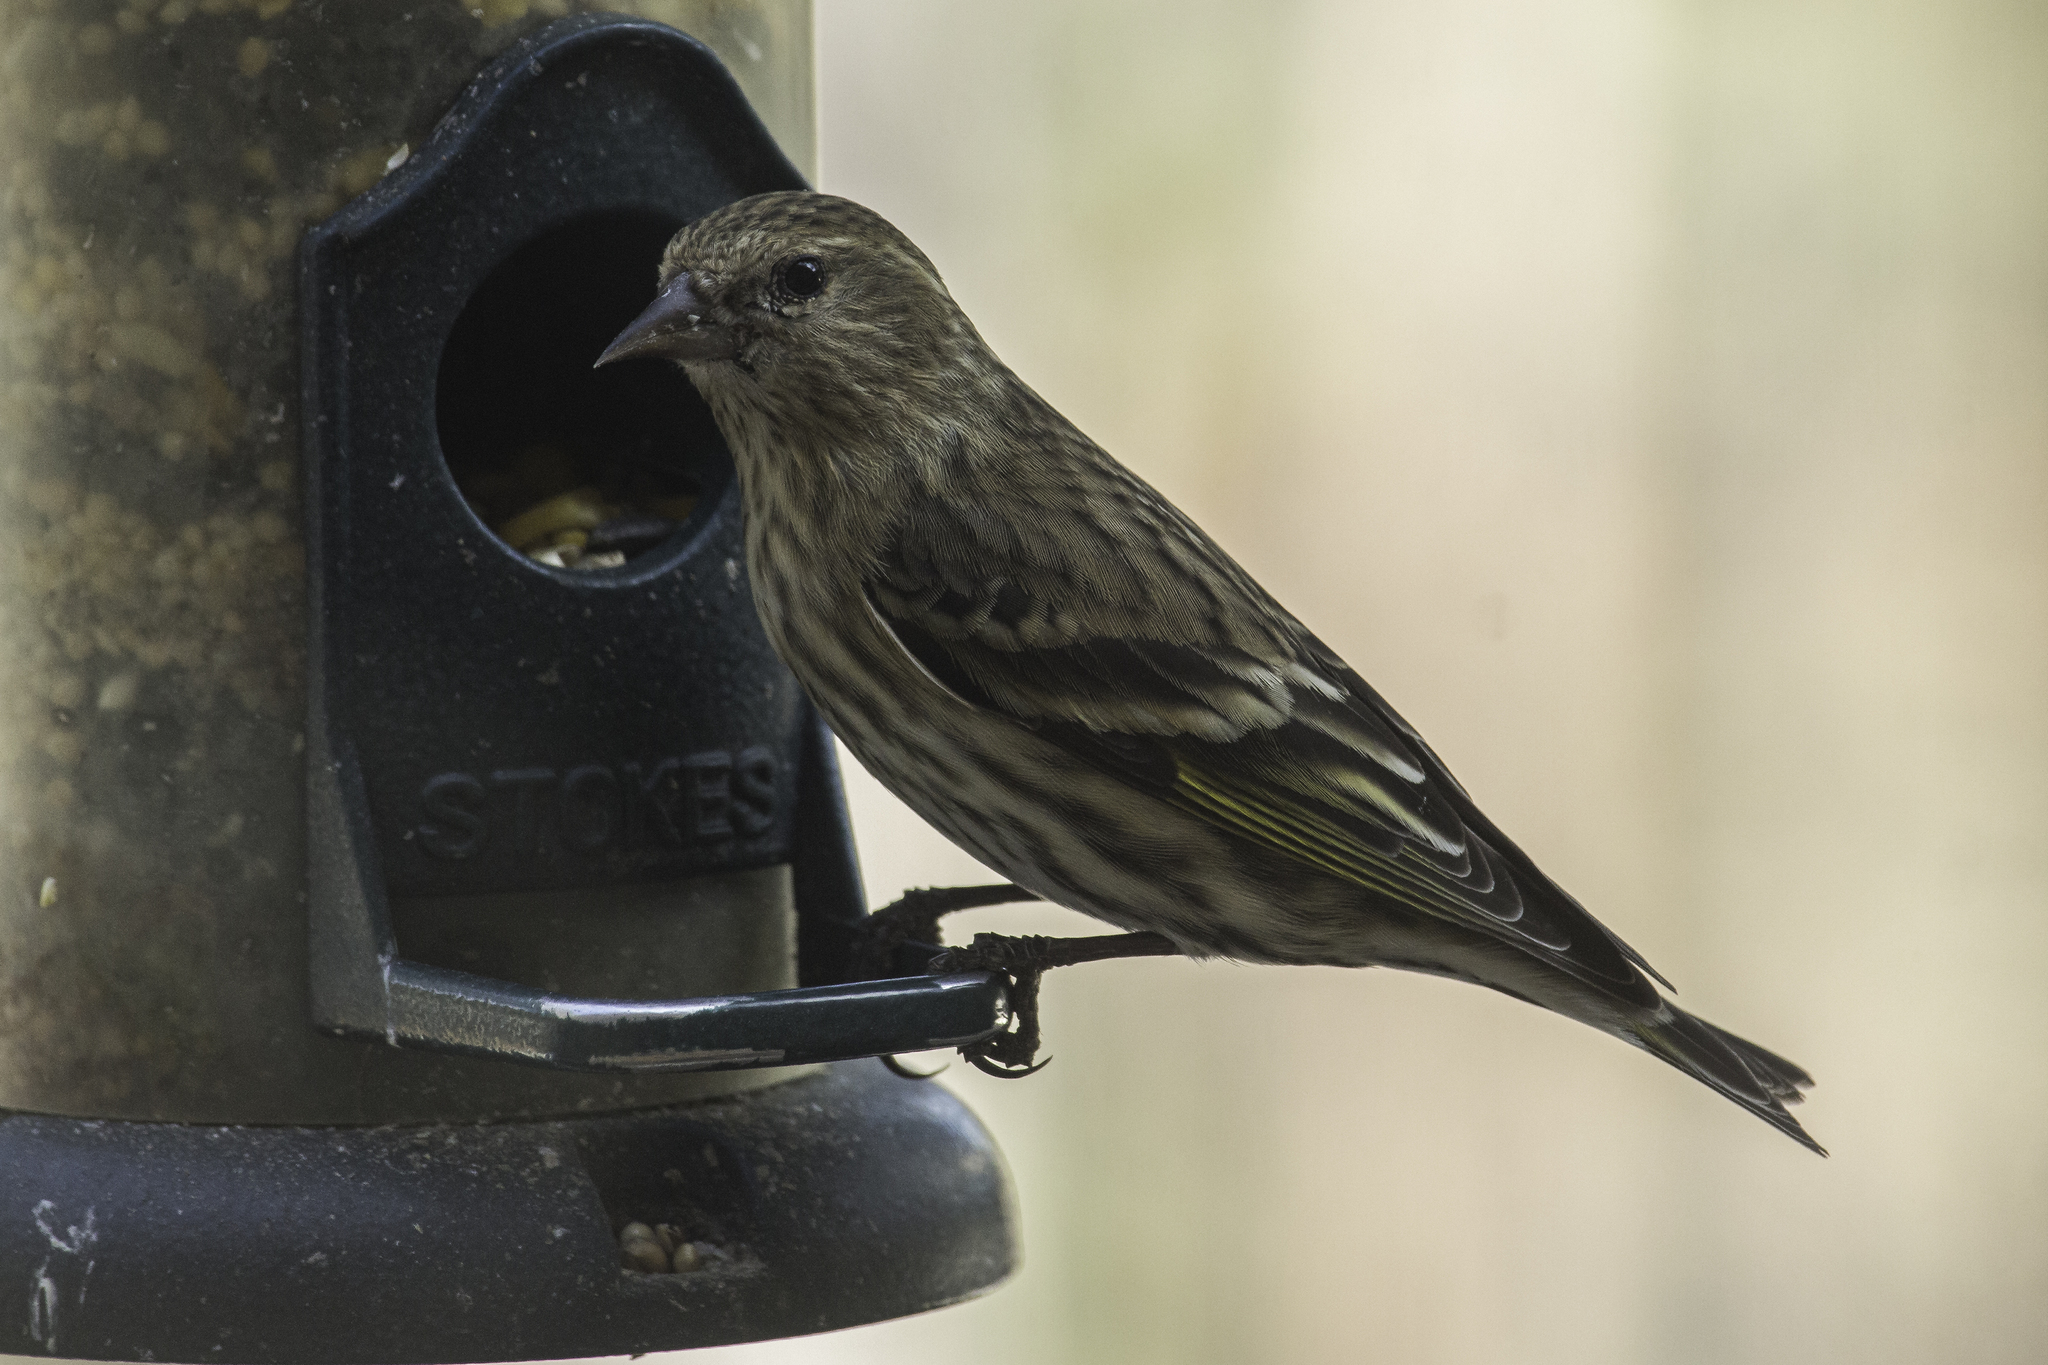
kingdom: Animalia
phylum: Chordata
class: Aves
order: Passeriformes
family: Fringillidae
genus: Spinus
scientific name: Spinus pinus
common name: Pine siskin
